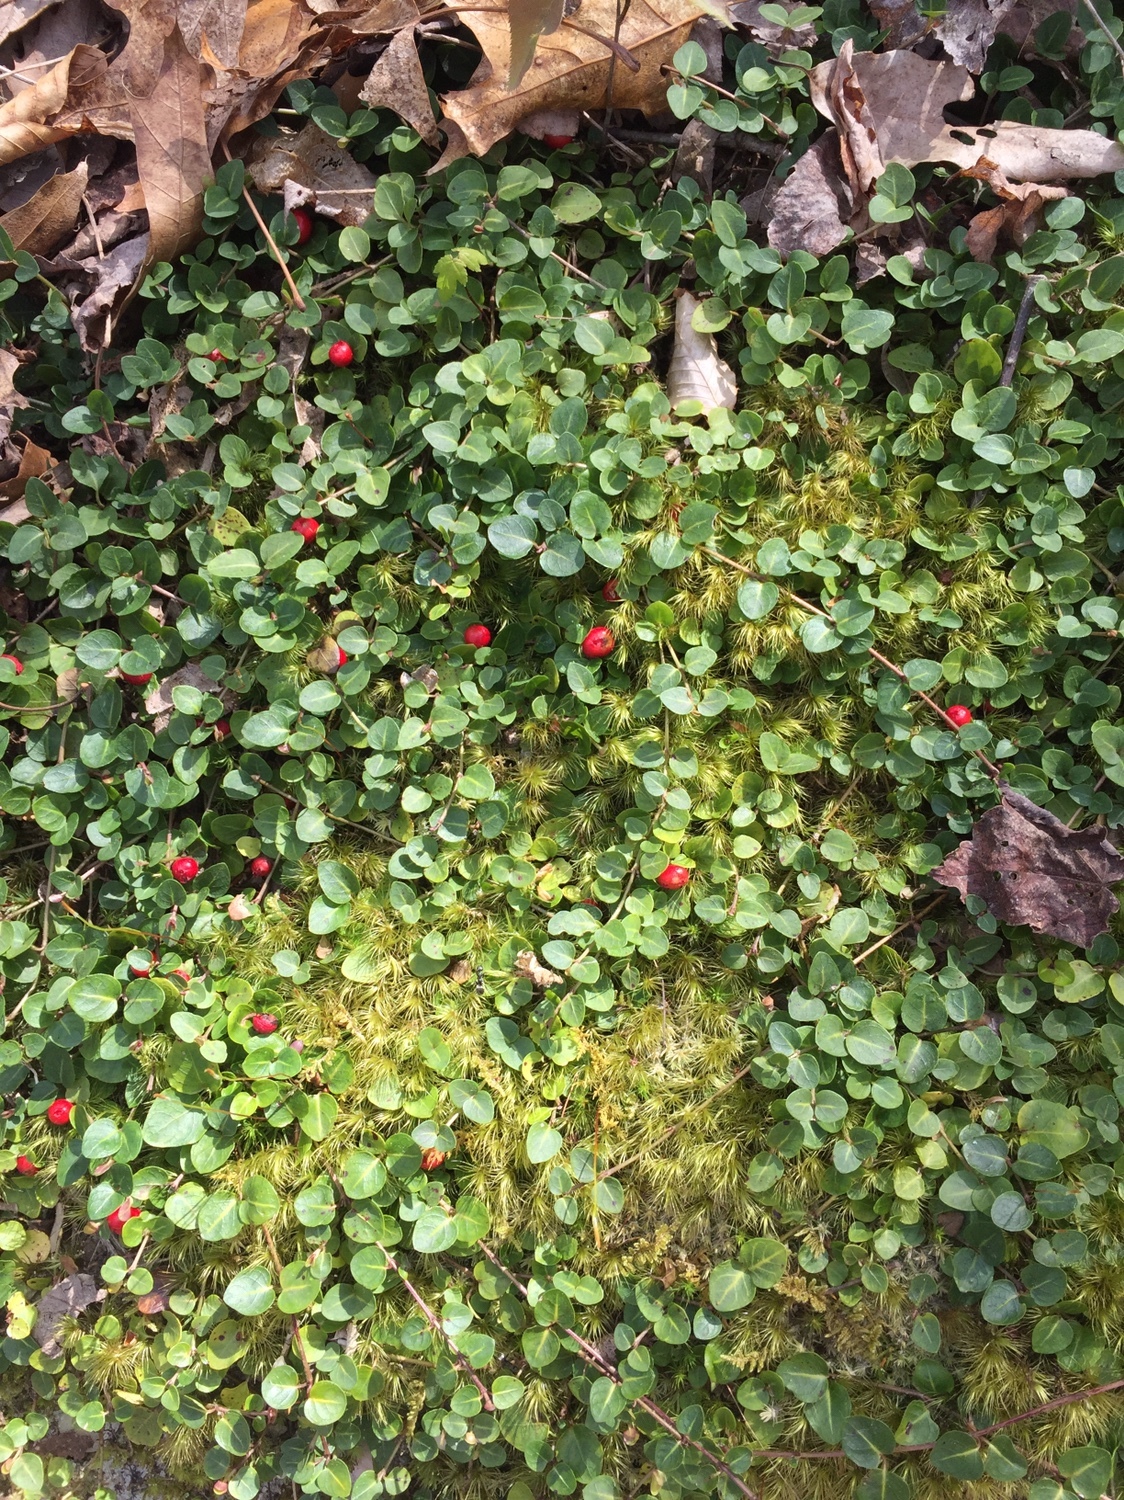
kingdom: Plantae
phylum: Tracheophyta
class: Magnoliopsida
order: Gentianales
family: Rubiaceae
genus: Mitchella
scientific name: Mitchella repens
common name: Partridge-berry
